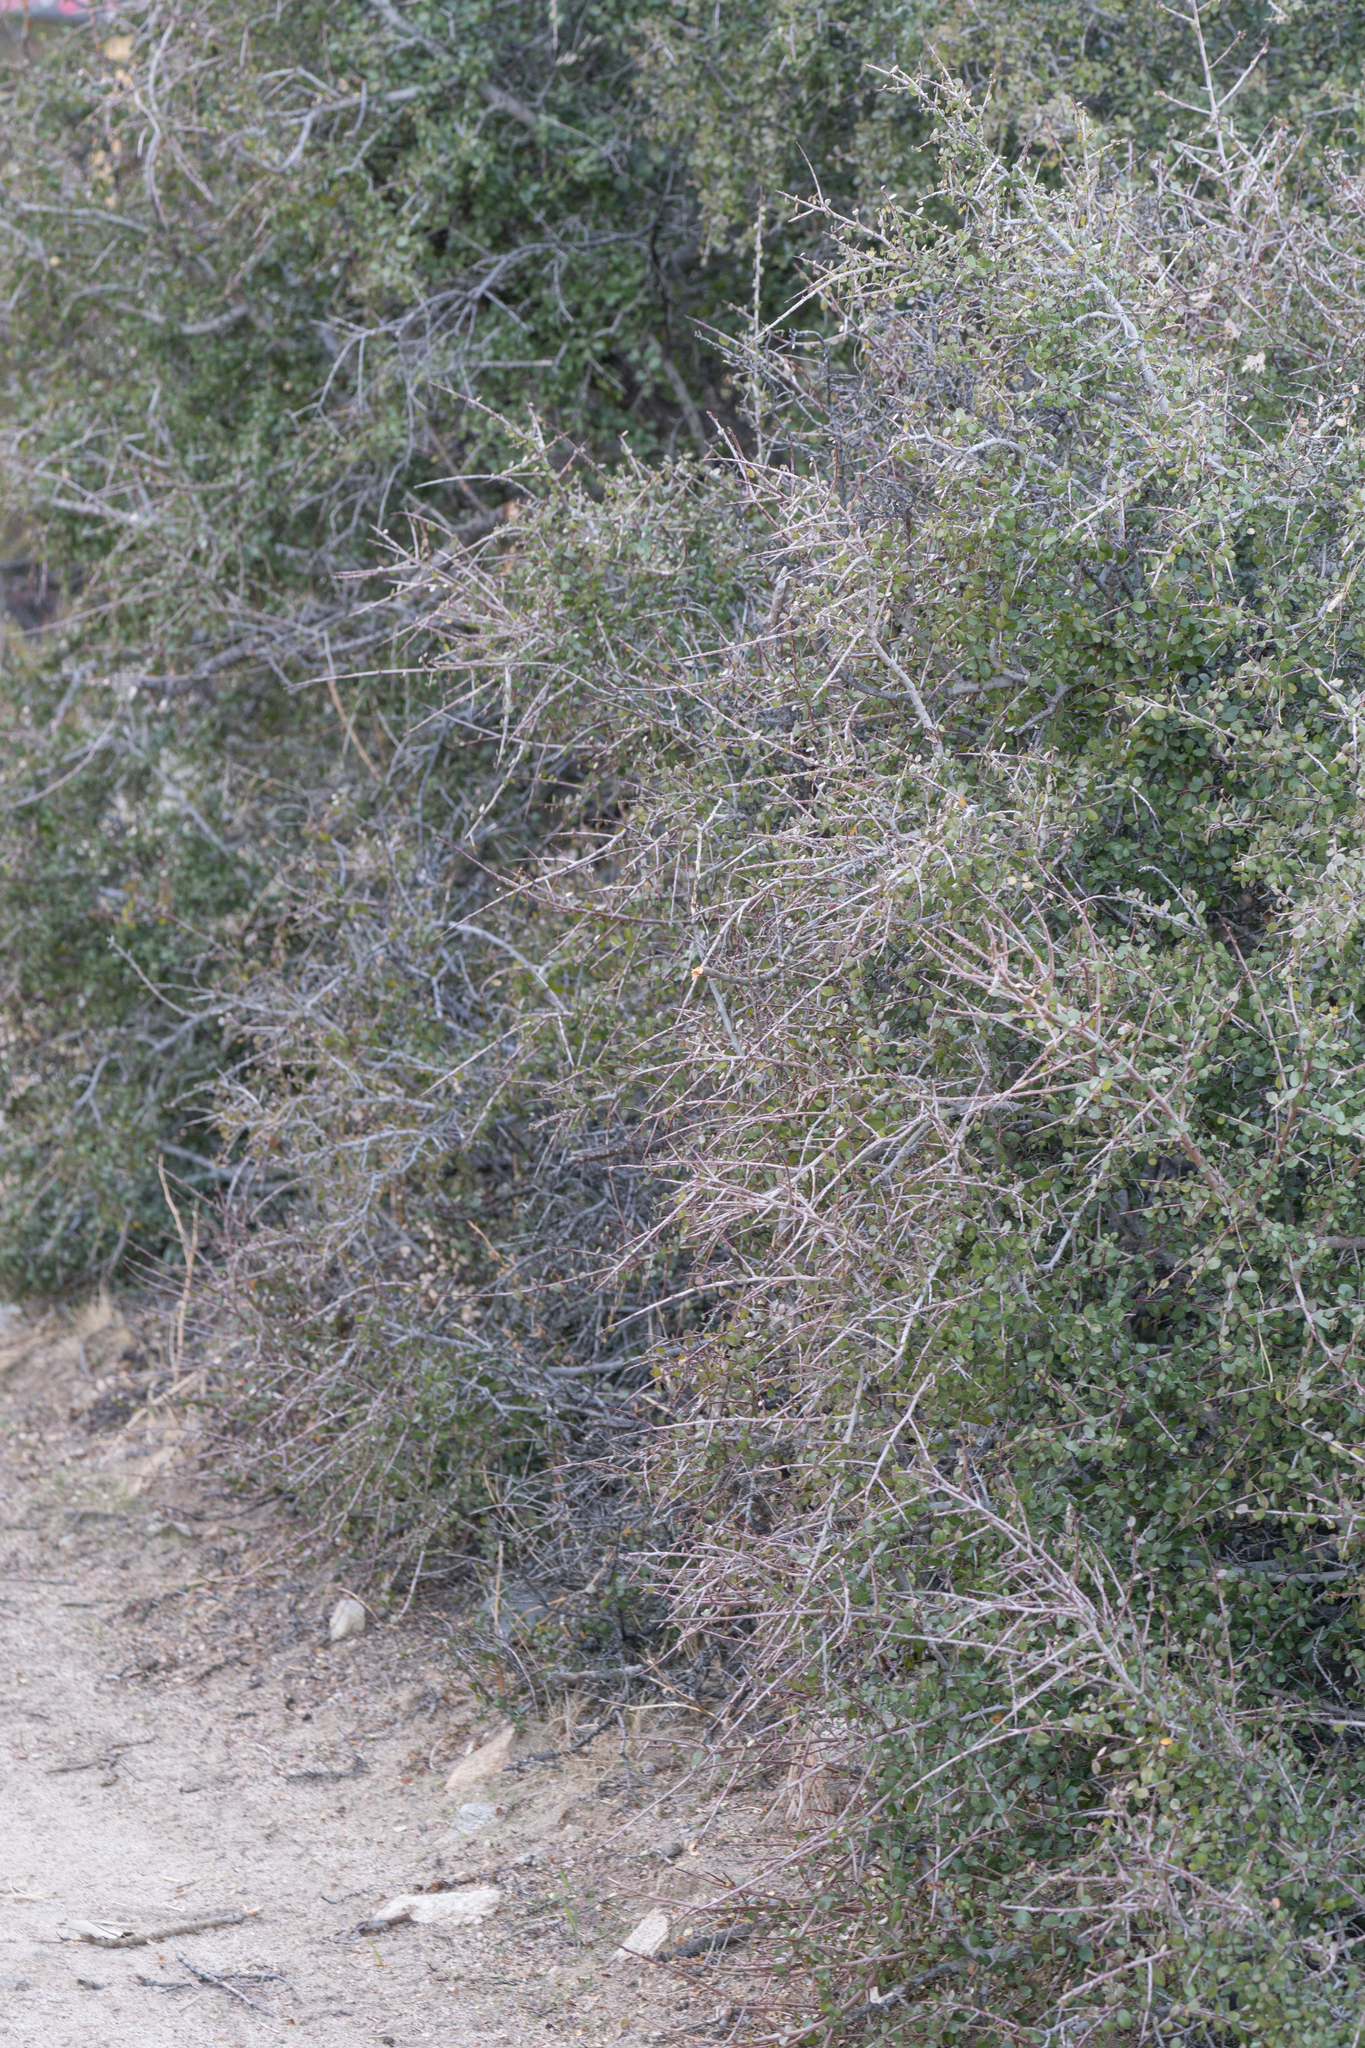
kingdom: Plantae
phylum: Tracheophyta
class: Magnoliopsida
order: Rosales
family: Rhamnaceae
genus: Endotropis
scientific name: Endotropis crocea
